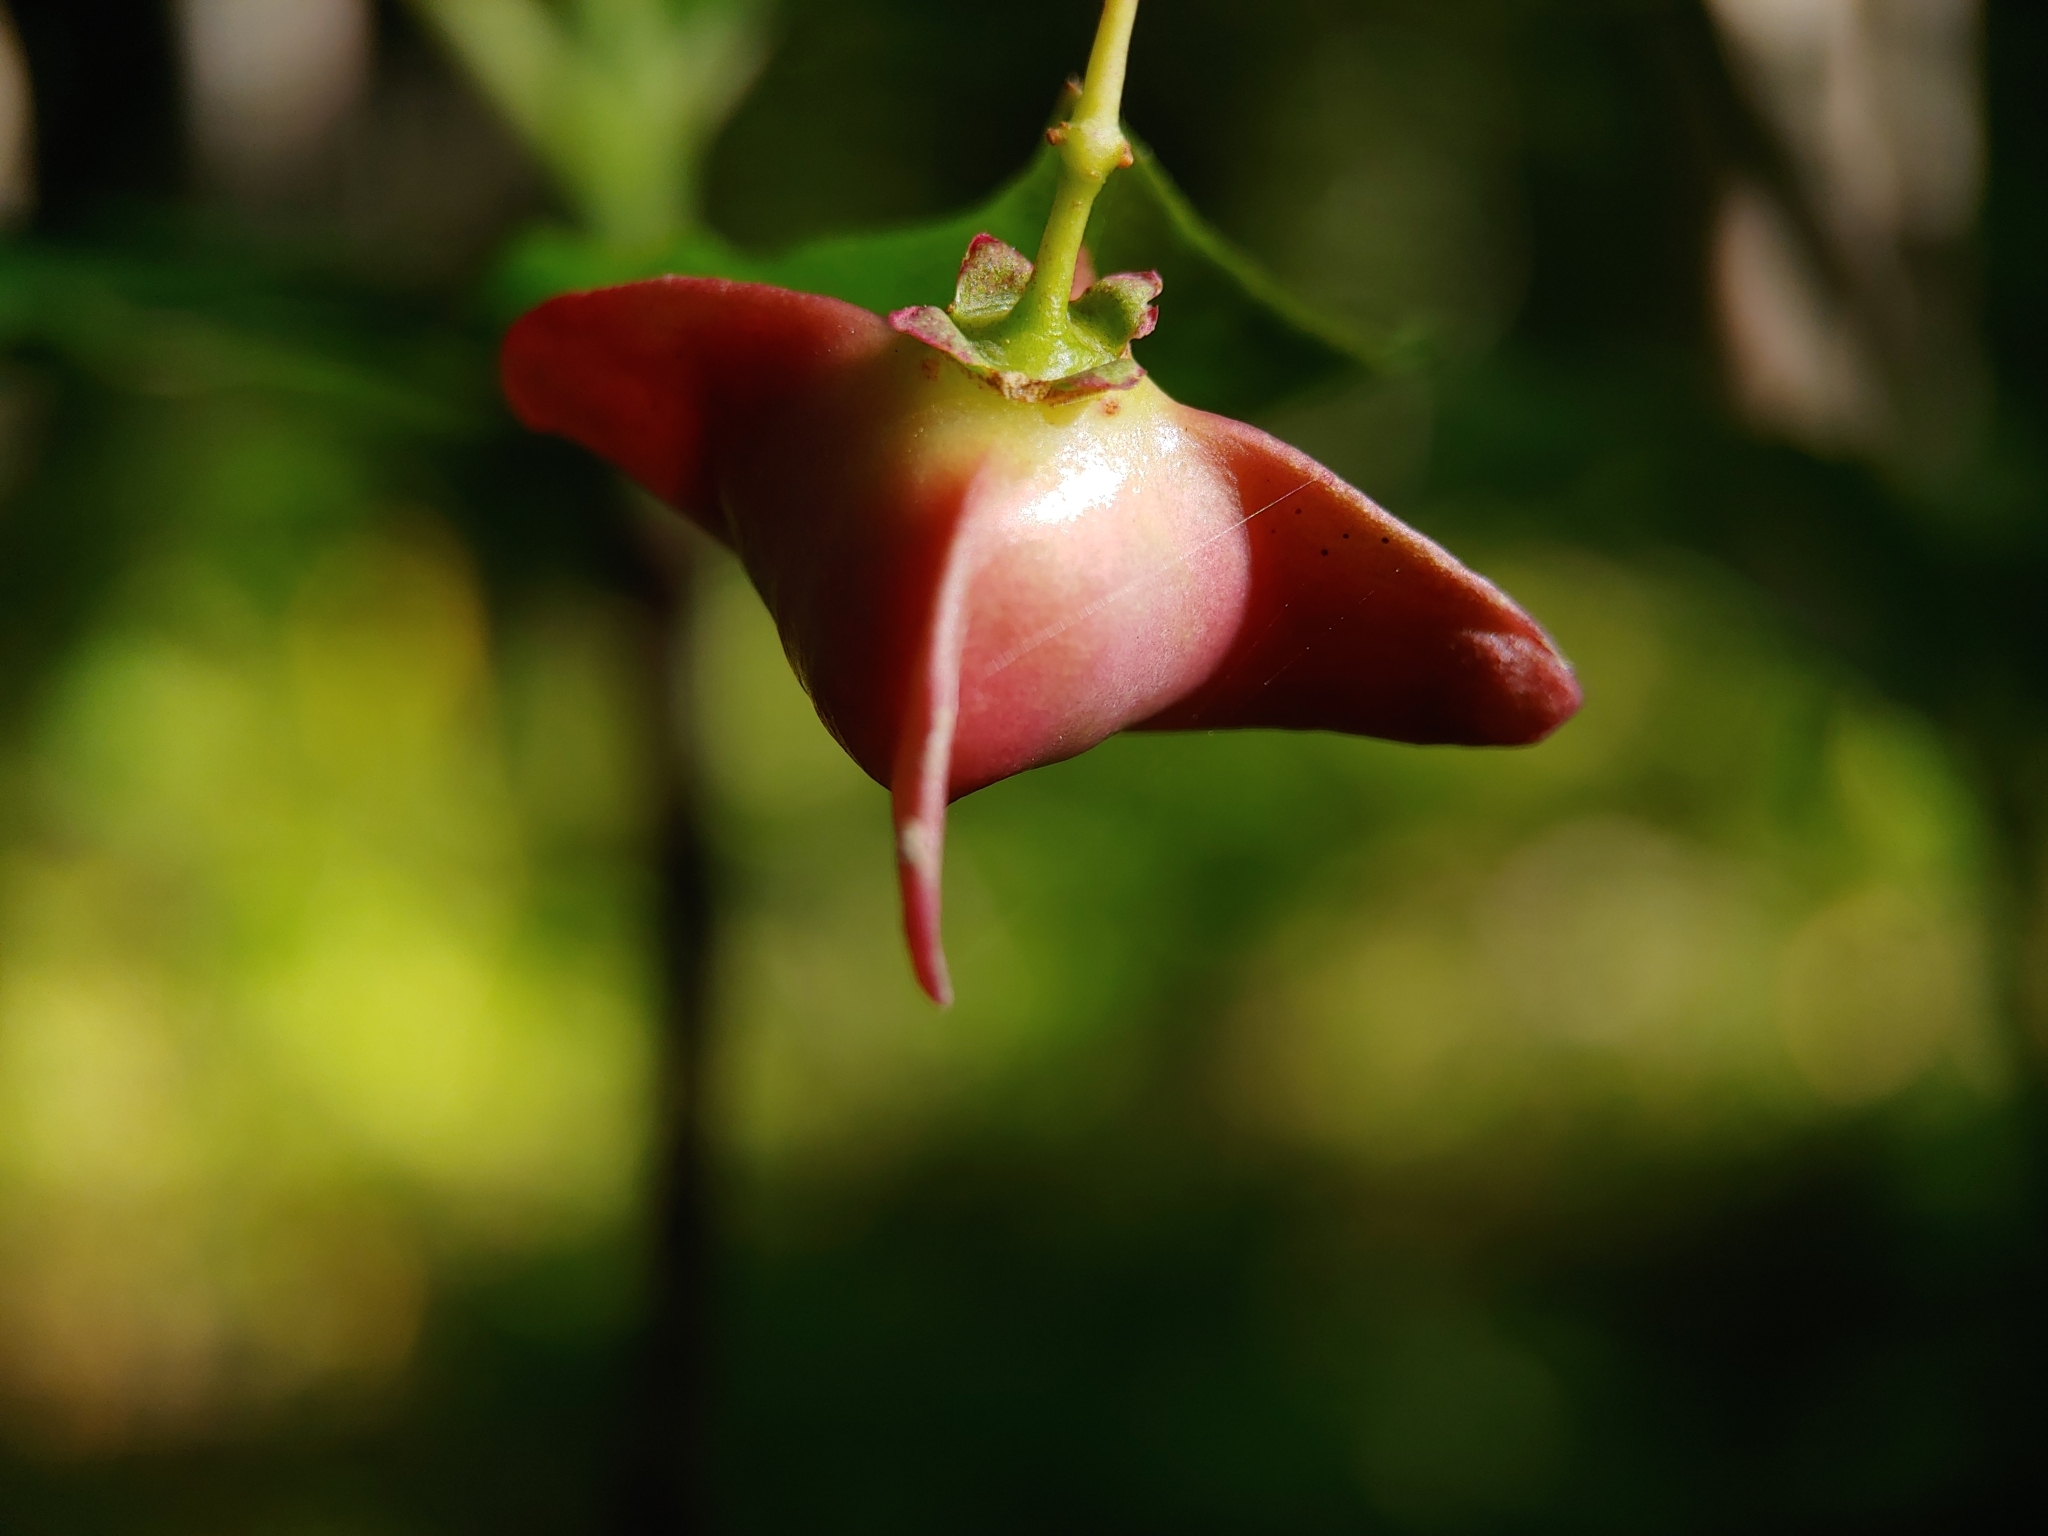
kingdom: Plantae
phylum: Tracheophyta
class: Magnoliopsida
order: Celastrales
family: Celastraceae
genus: Euonymus
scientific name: Euonymus sachalinensis
